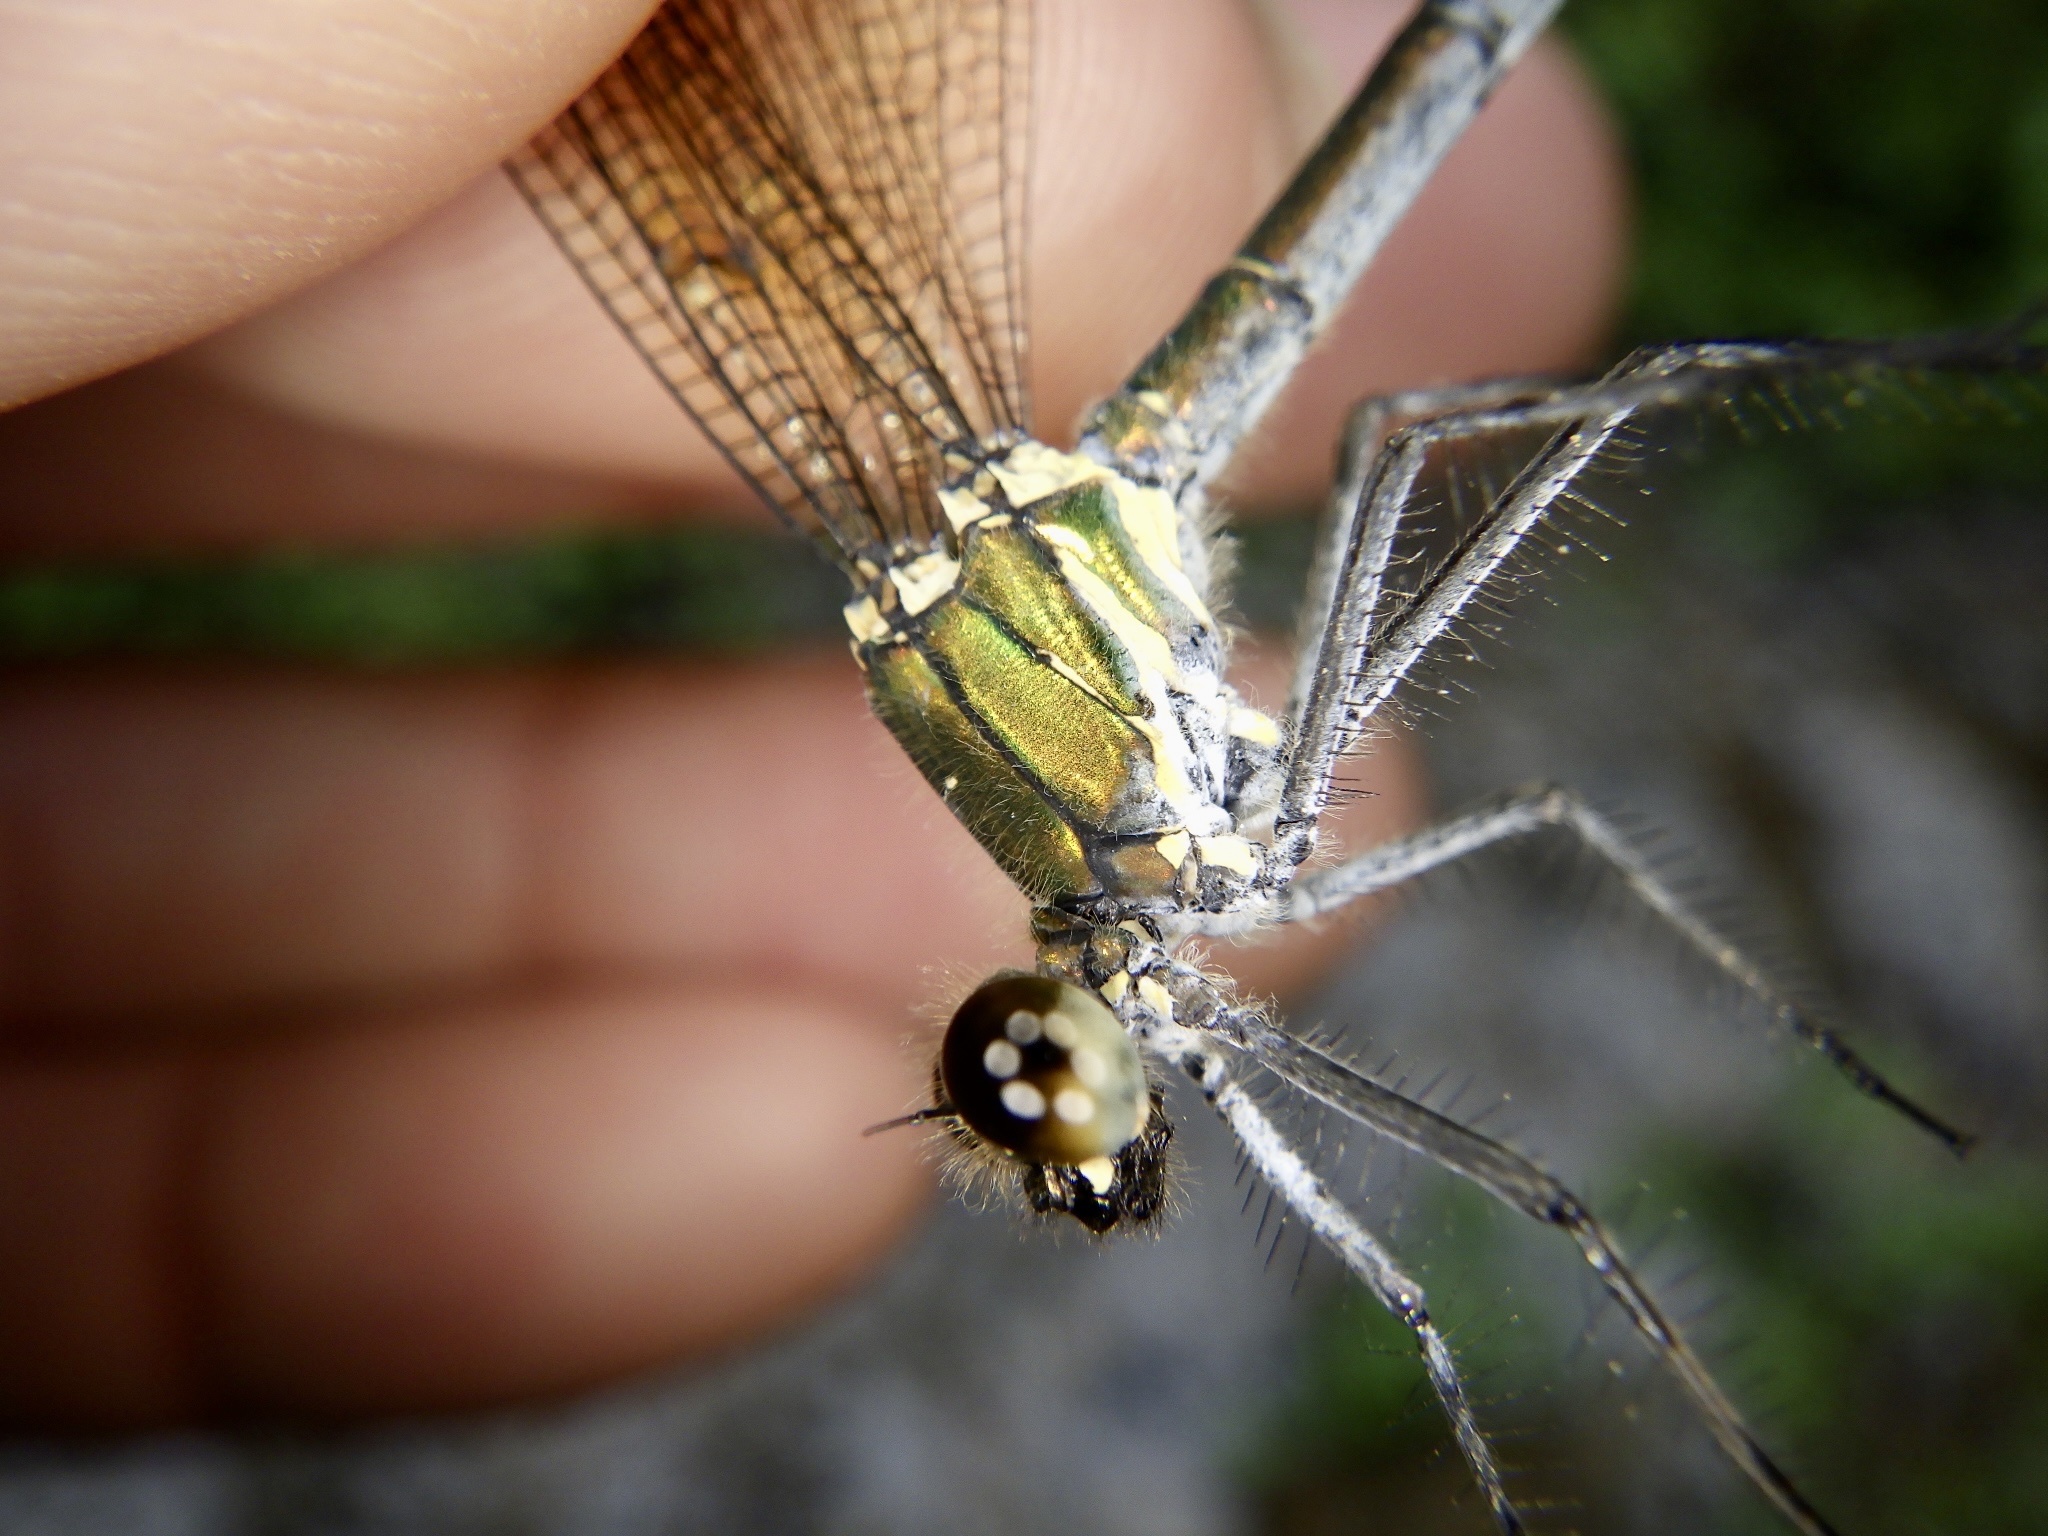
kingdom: Animalia
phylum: Arthropoda
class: Insecta
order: Odonata
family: Calopterygidae
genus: Mnais
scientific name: Mnais costalis
